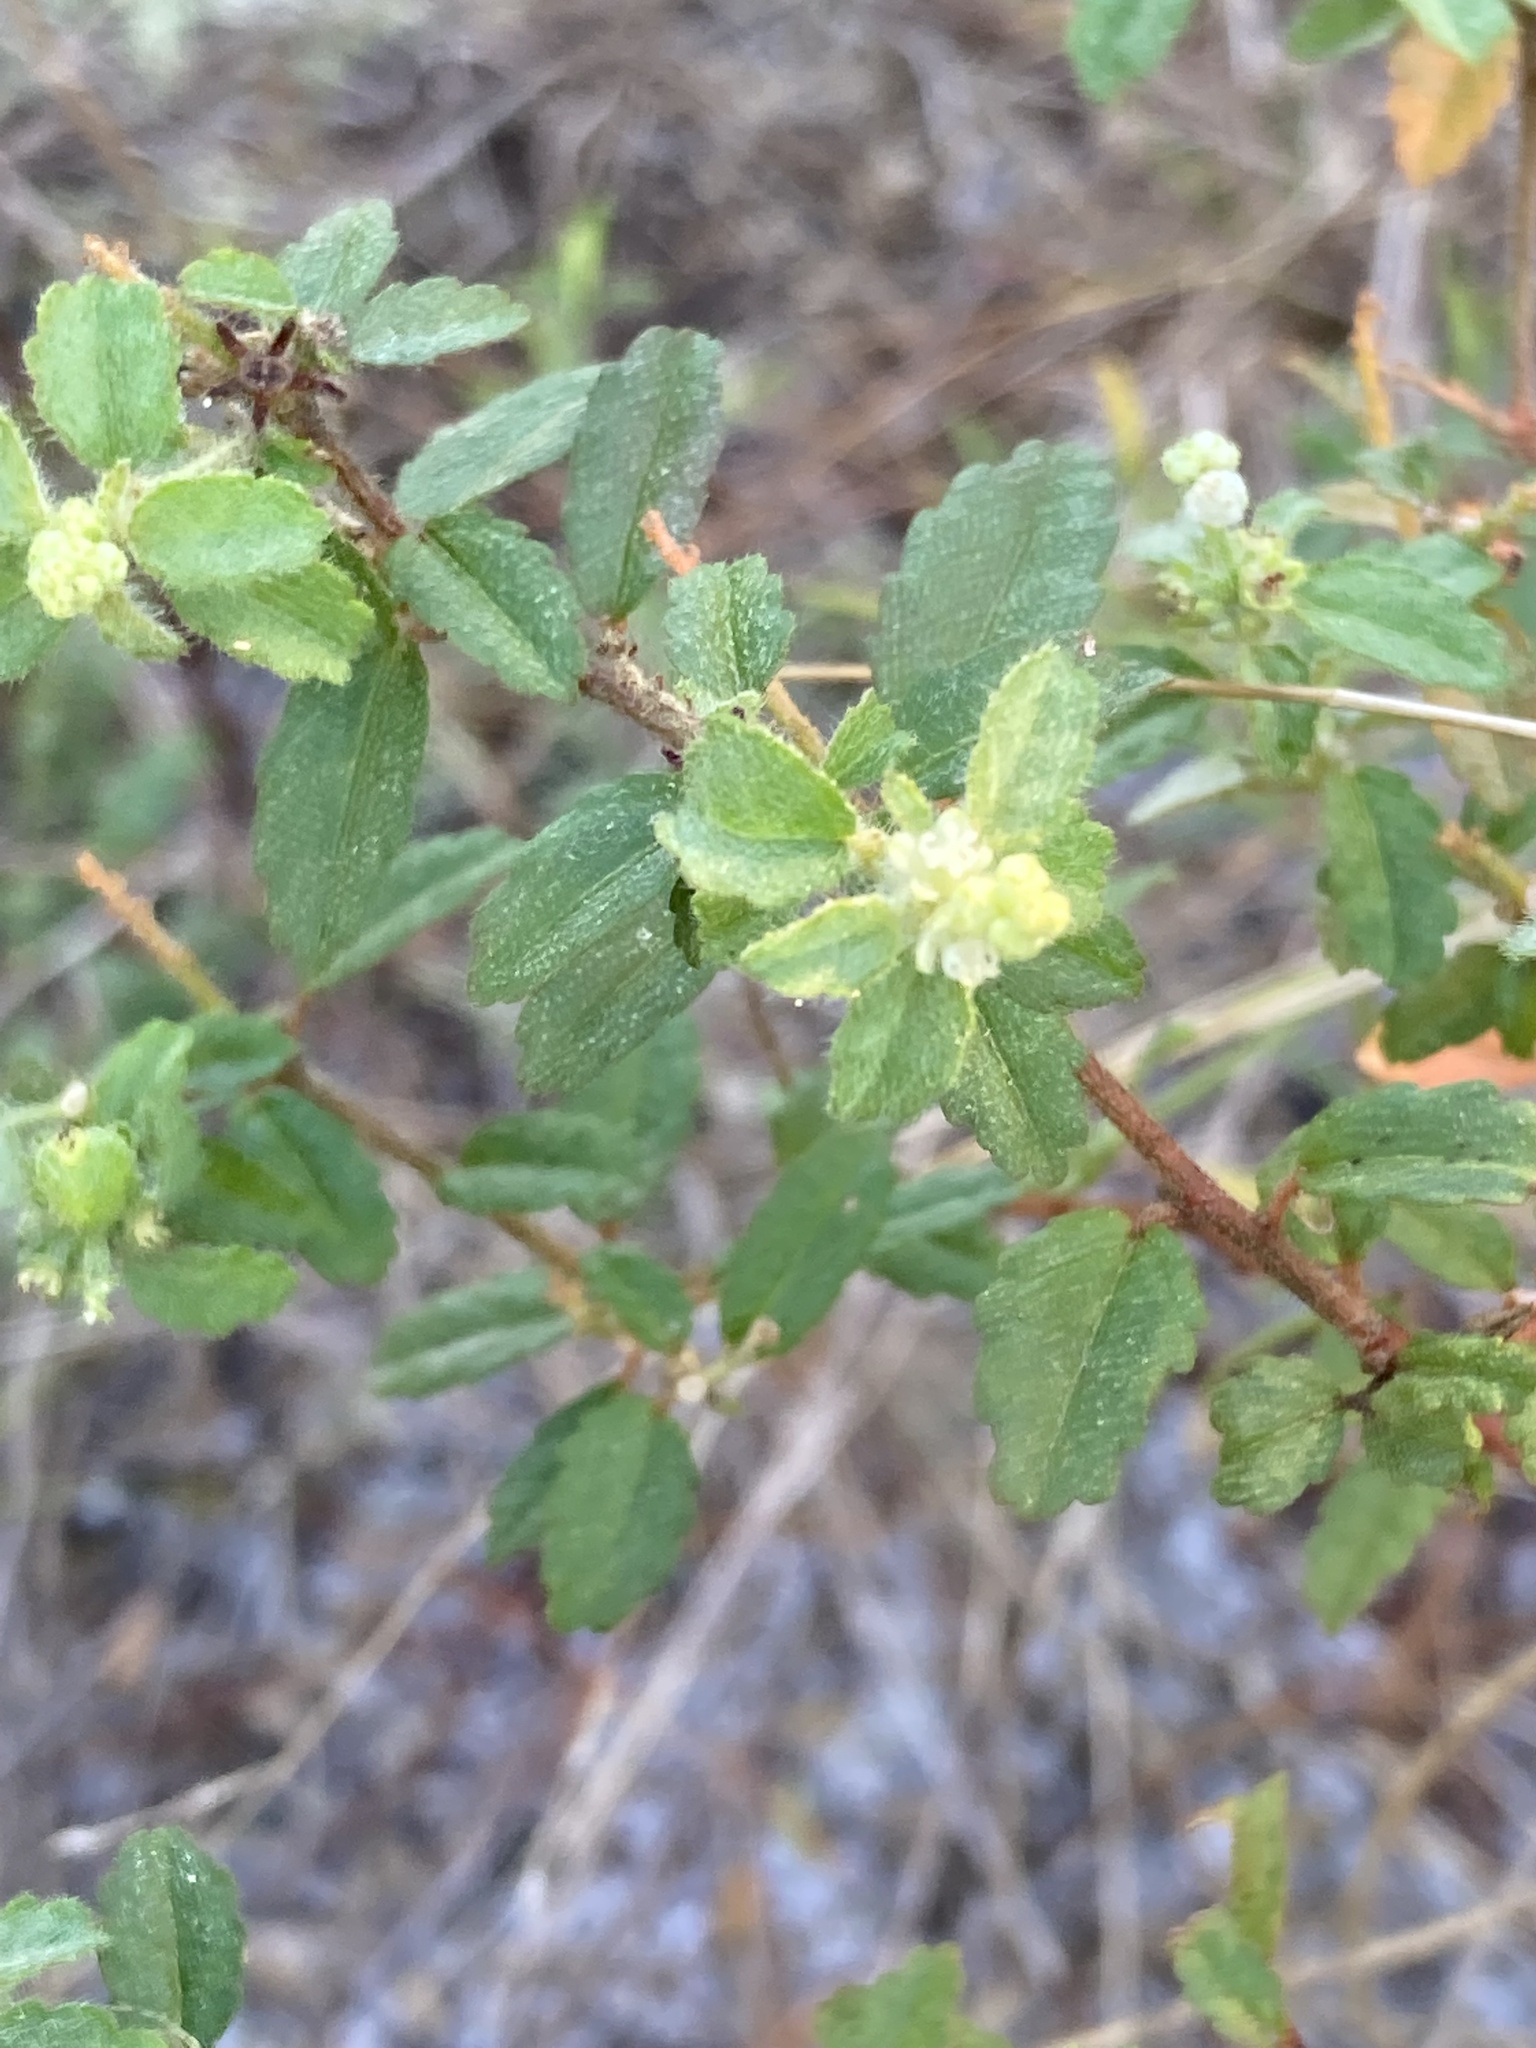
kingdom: Plantae
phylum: Tracheophyta
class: Magnoliopsida
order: Malpighiales
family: Euphorbiaceae
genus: Croton
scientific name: Croton glandulosus
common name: Tropic croton
